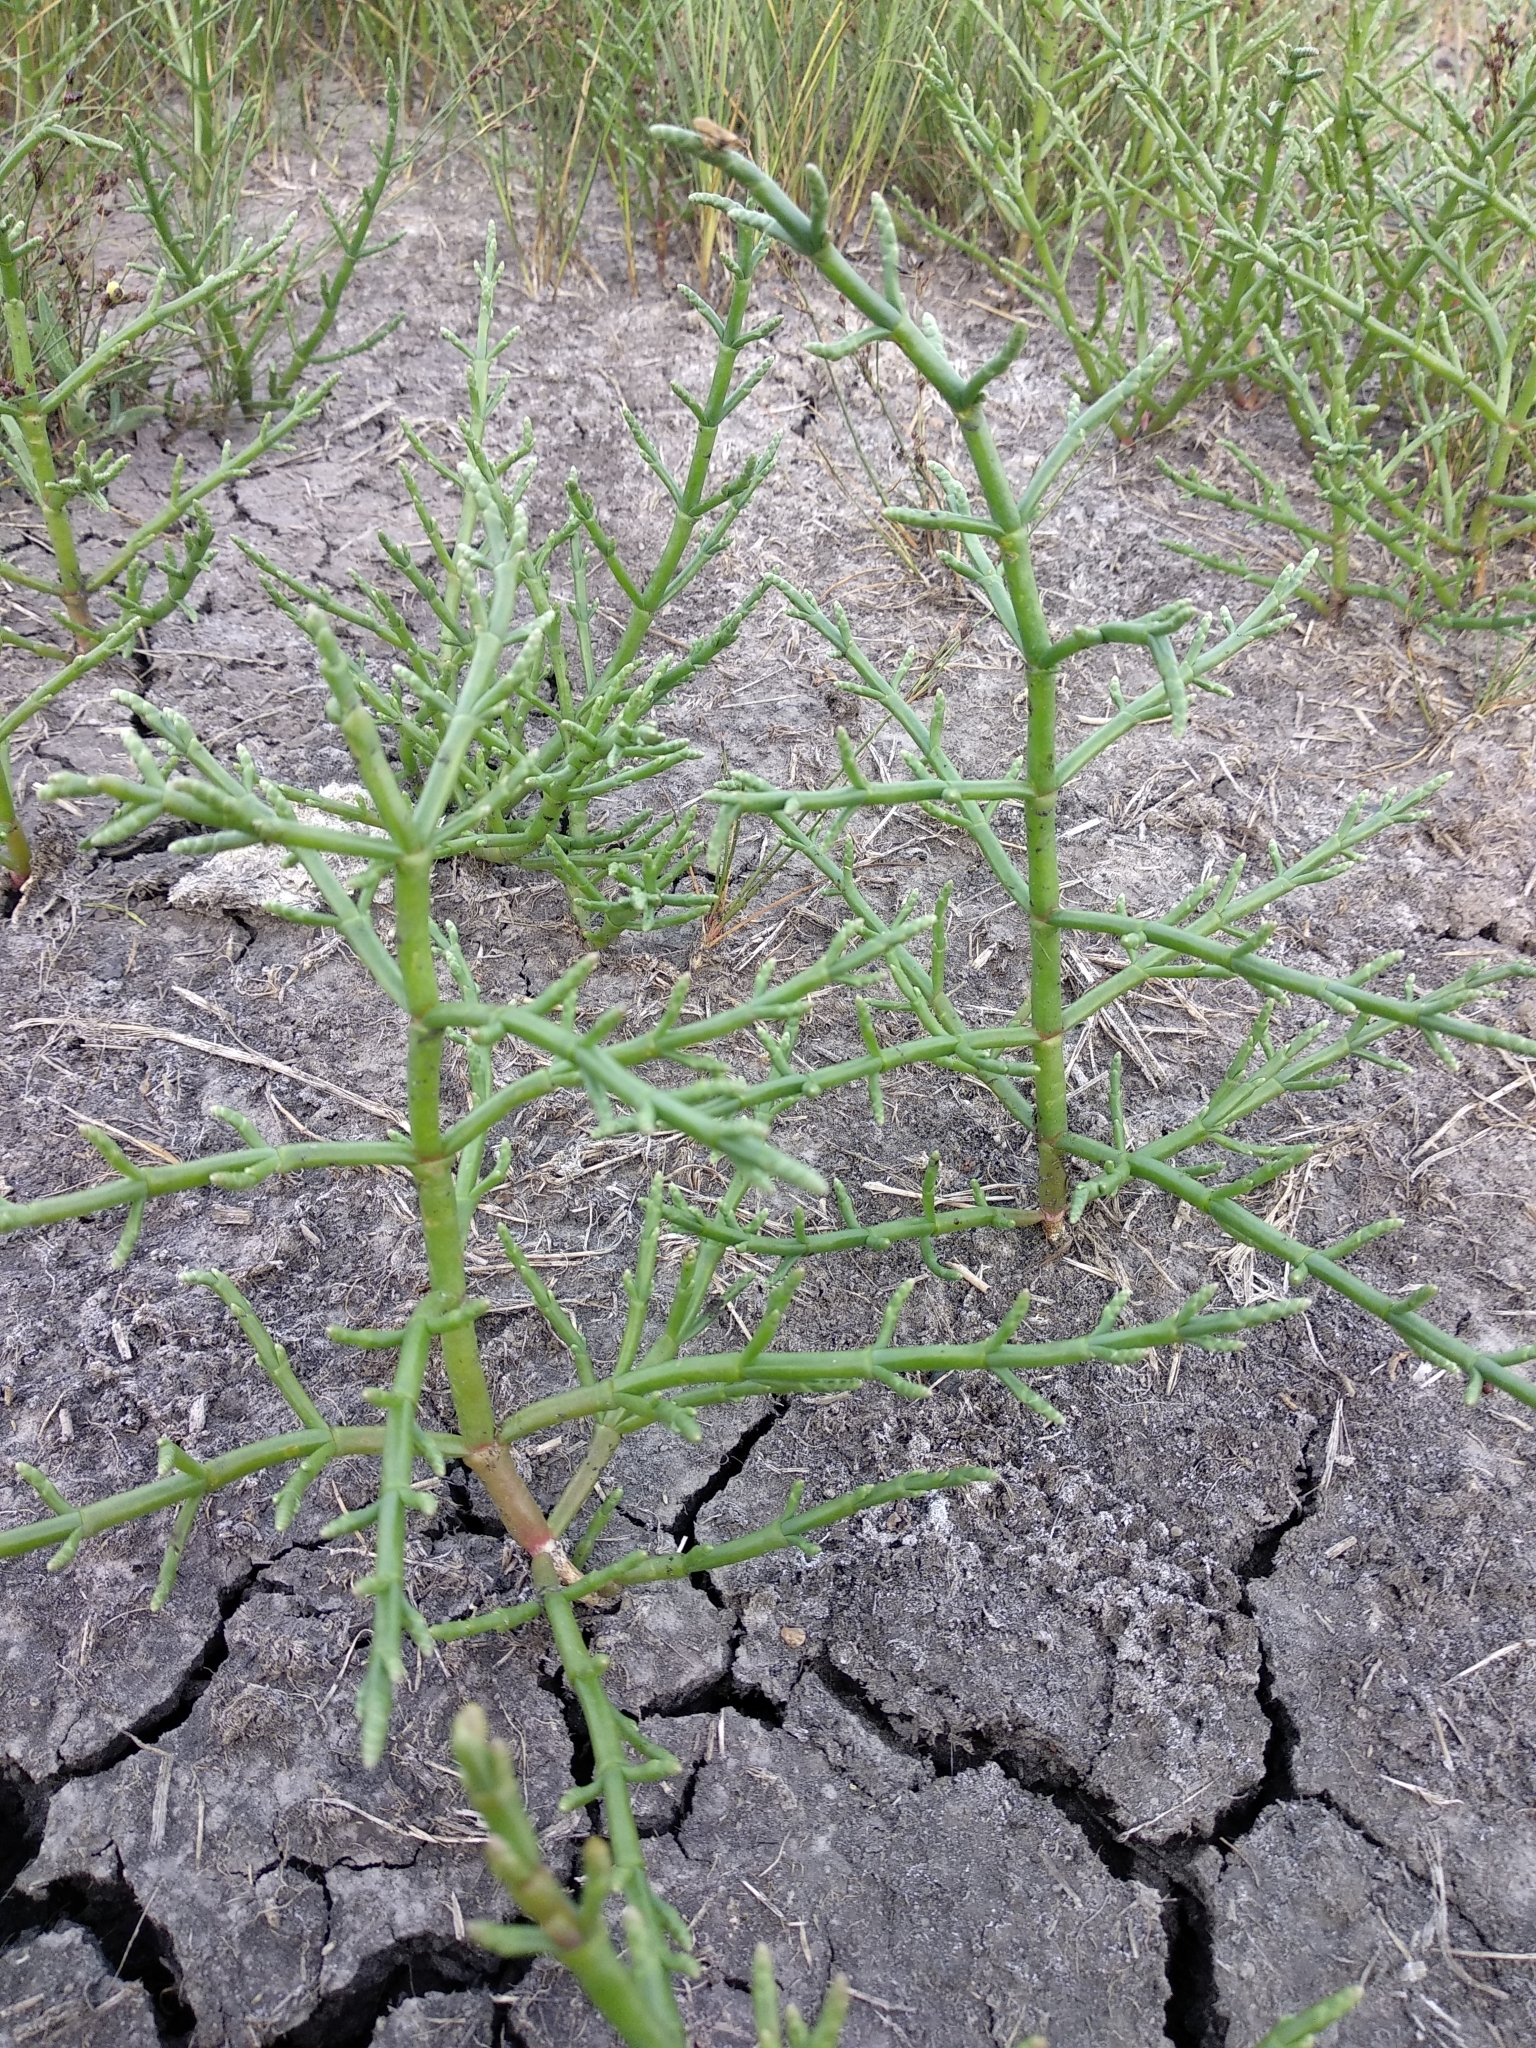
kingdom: Plantae
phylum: Tracheophyta
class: Magnoliopsida
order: Caryophyllales
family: Amaranthaceae
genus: Salicornia
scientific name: Salicornia perennans
